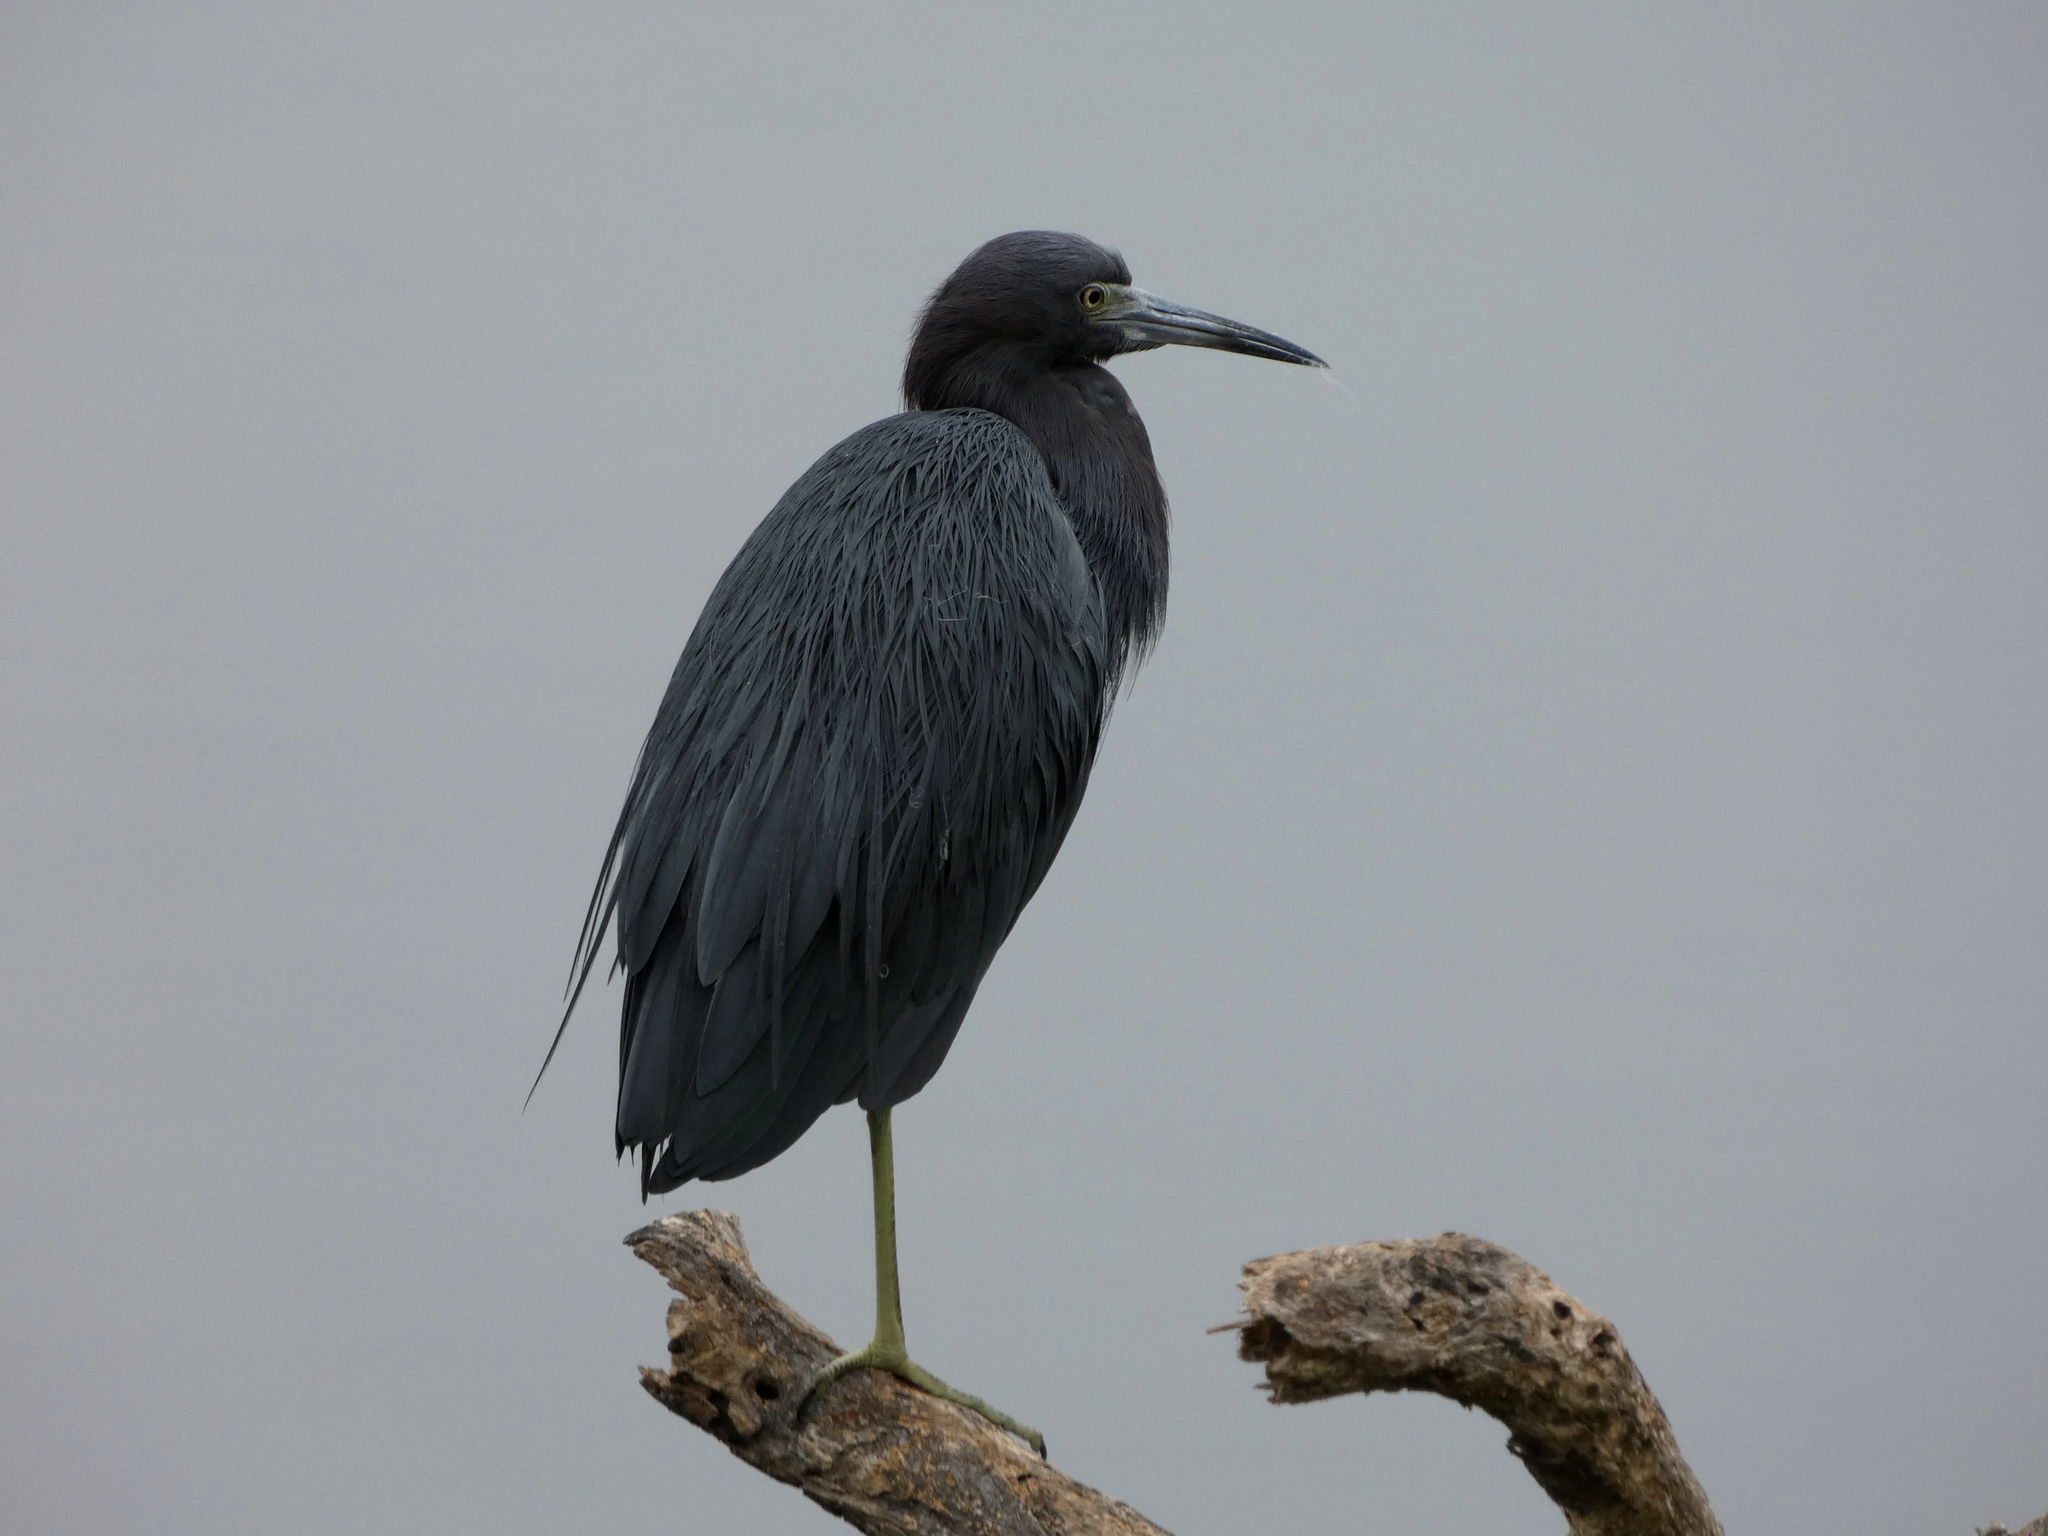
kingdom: Animalia
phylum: Chordata
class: Aves
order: Pelecaniformes
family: Ardeidae
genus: Egretta
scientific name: Egretta caerulea
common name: Little blue heron
